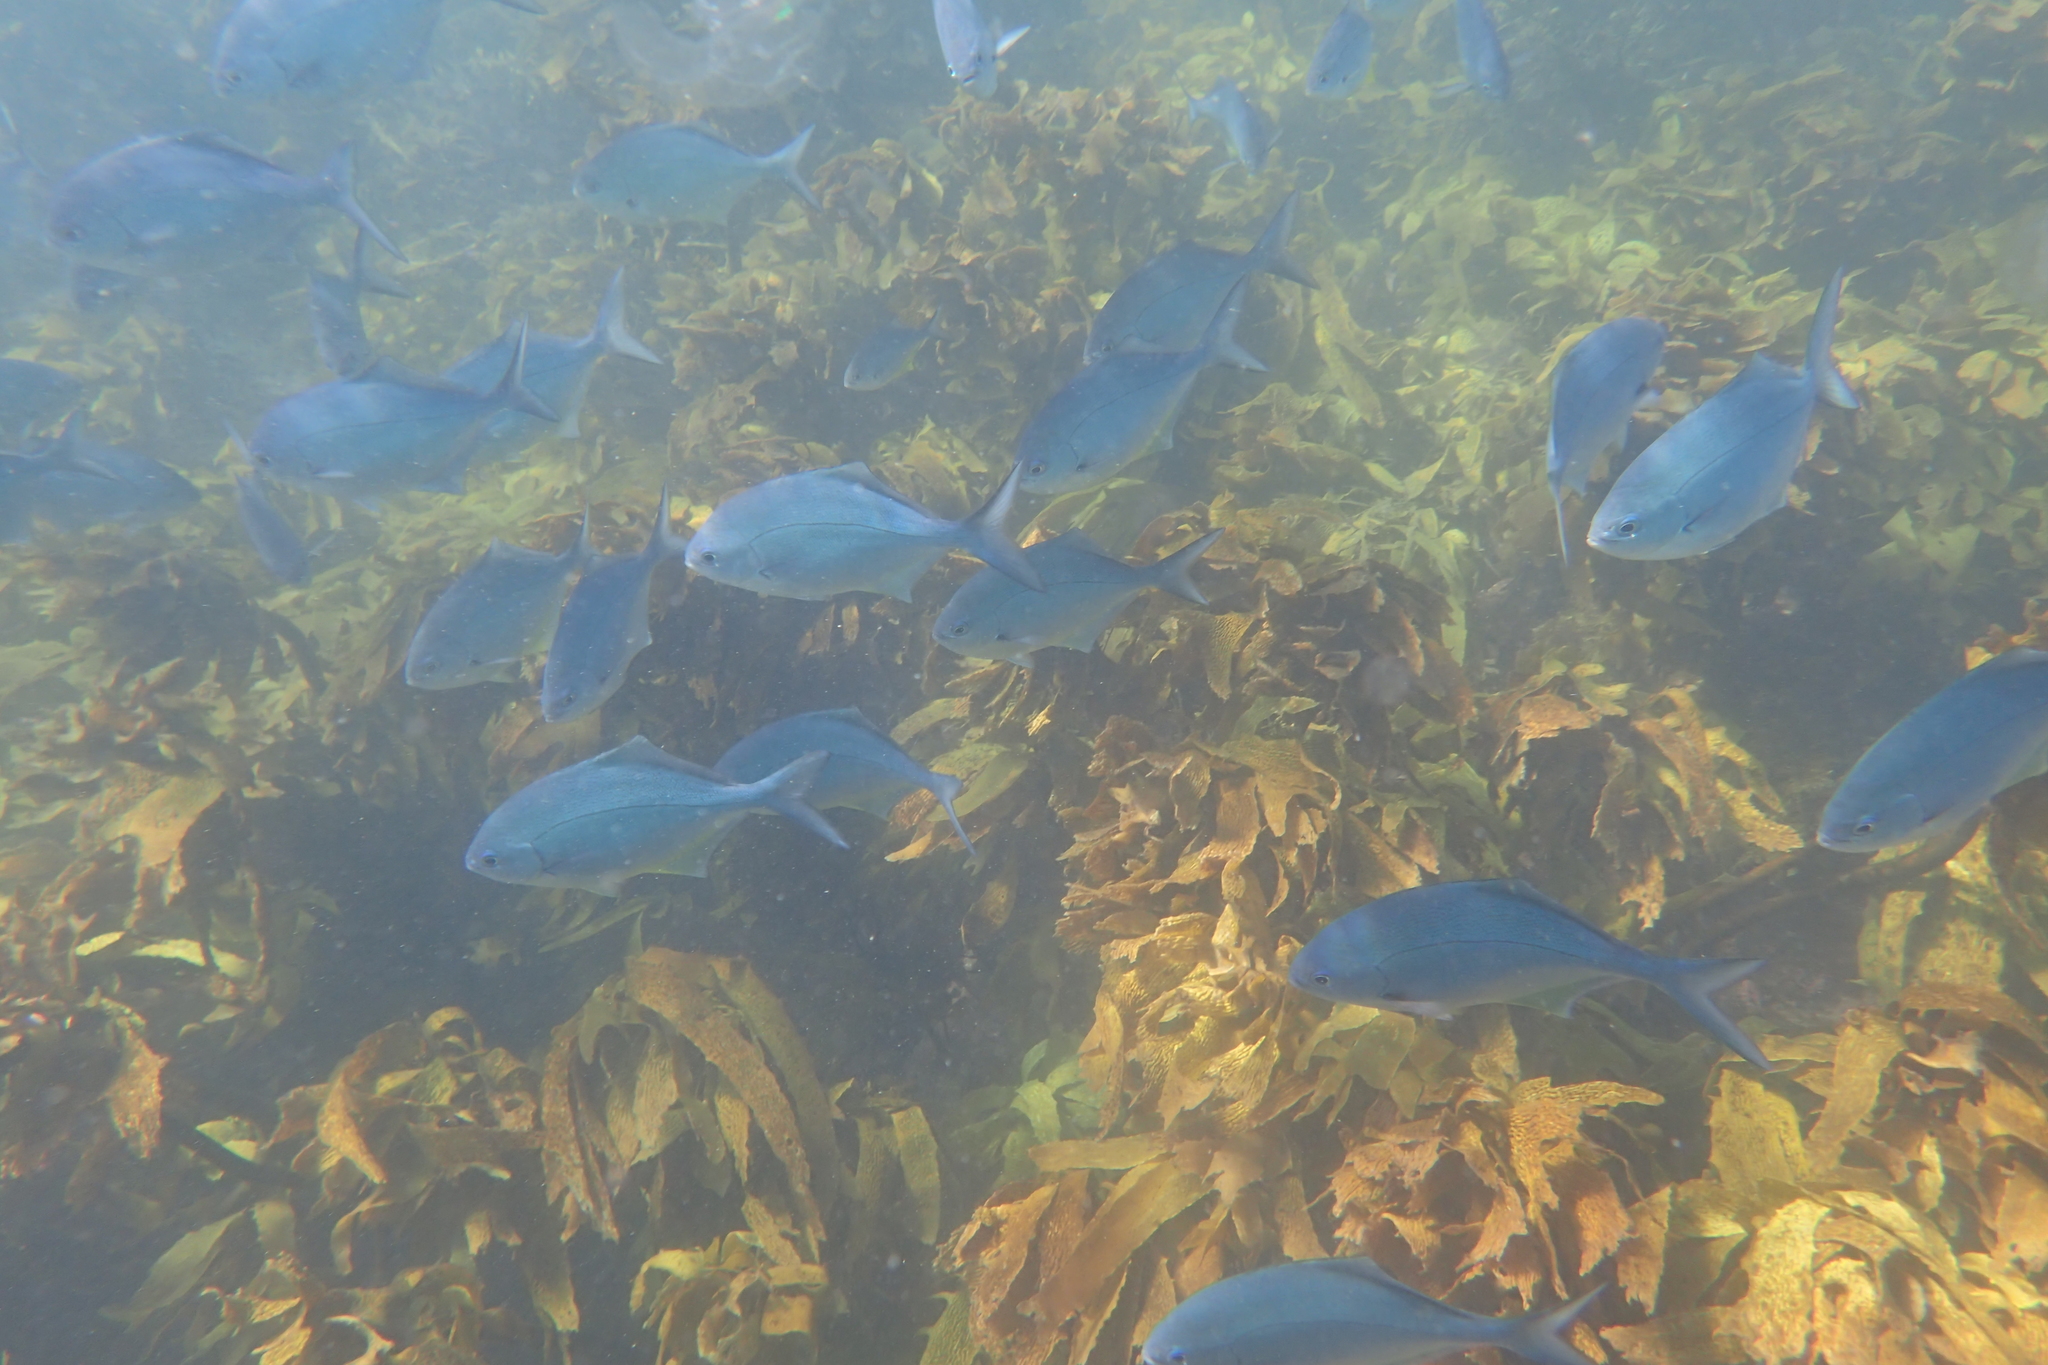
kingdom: Animalia
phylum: Chordata
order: Perciformes
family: Kyphosidae
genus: Scorpis
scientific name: Scorpis violacea
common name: Blue maomao
